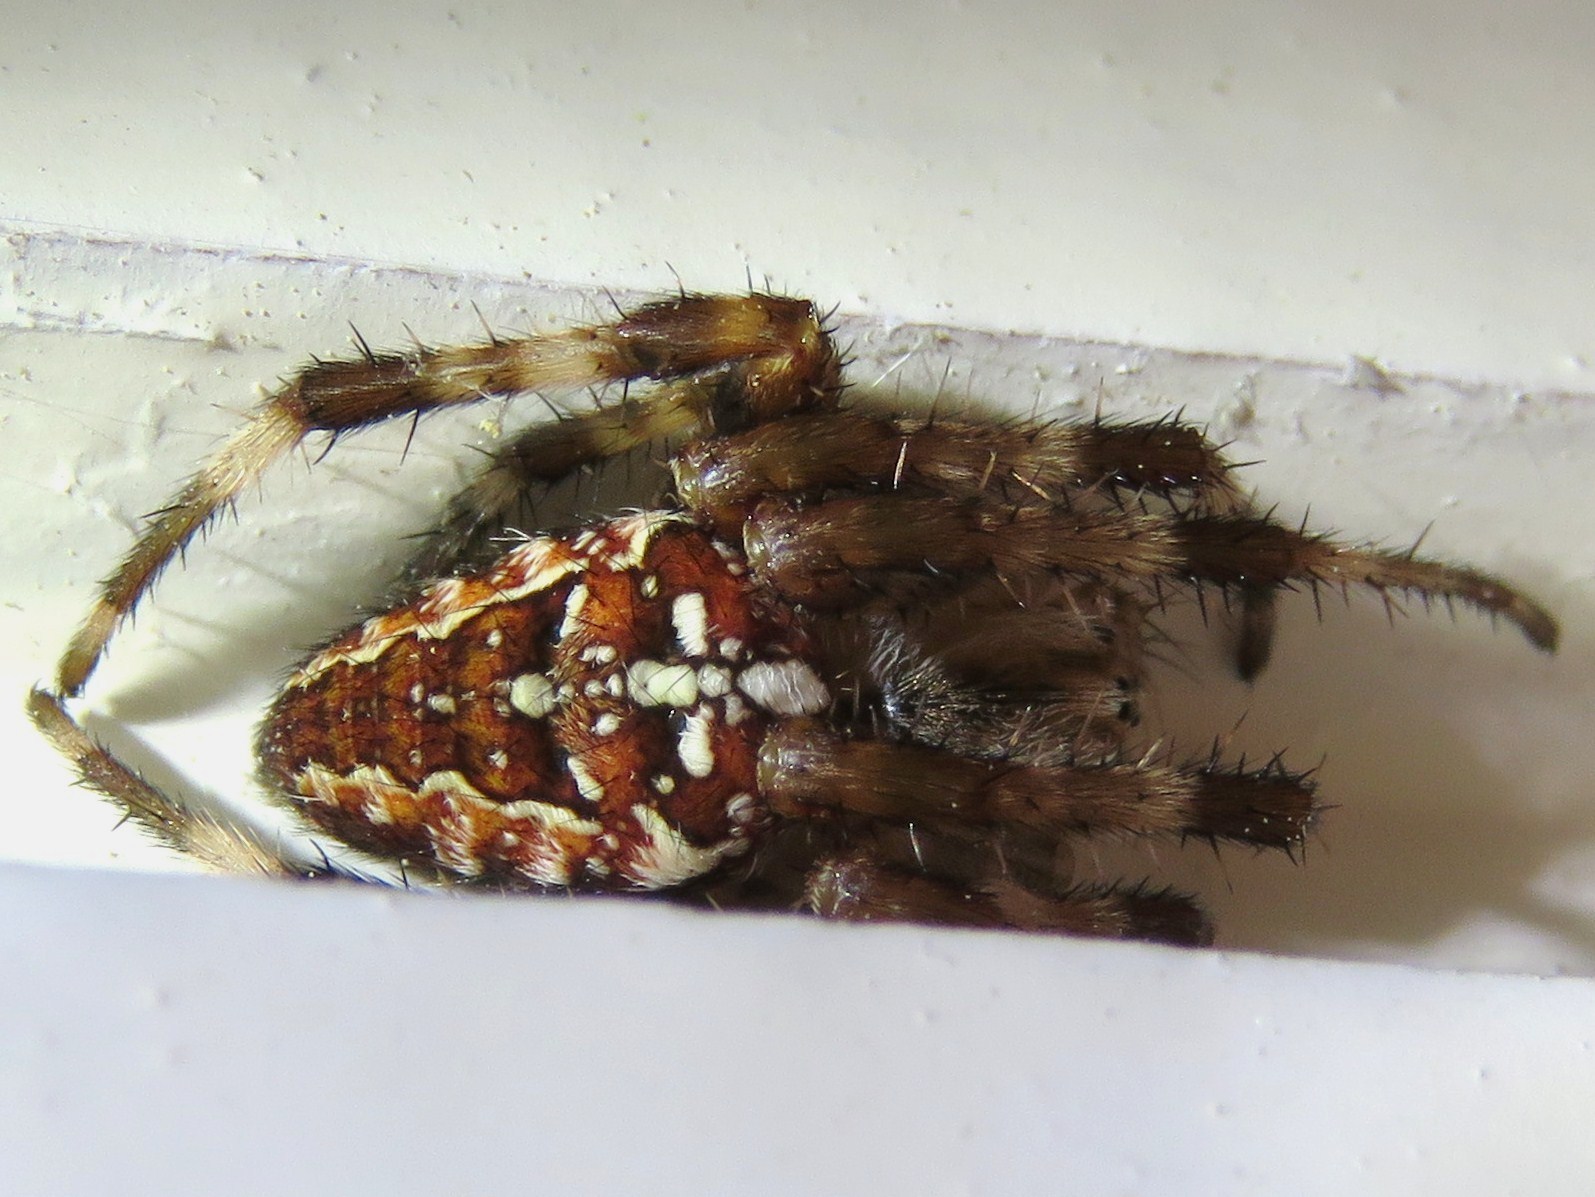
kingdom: Animalia
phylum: Arthropoda
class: Arachnida
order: Araneae
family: Araneidae
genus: Araneus
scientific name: Araneus diadematus
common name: Cross orbweaver
